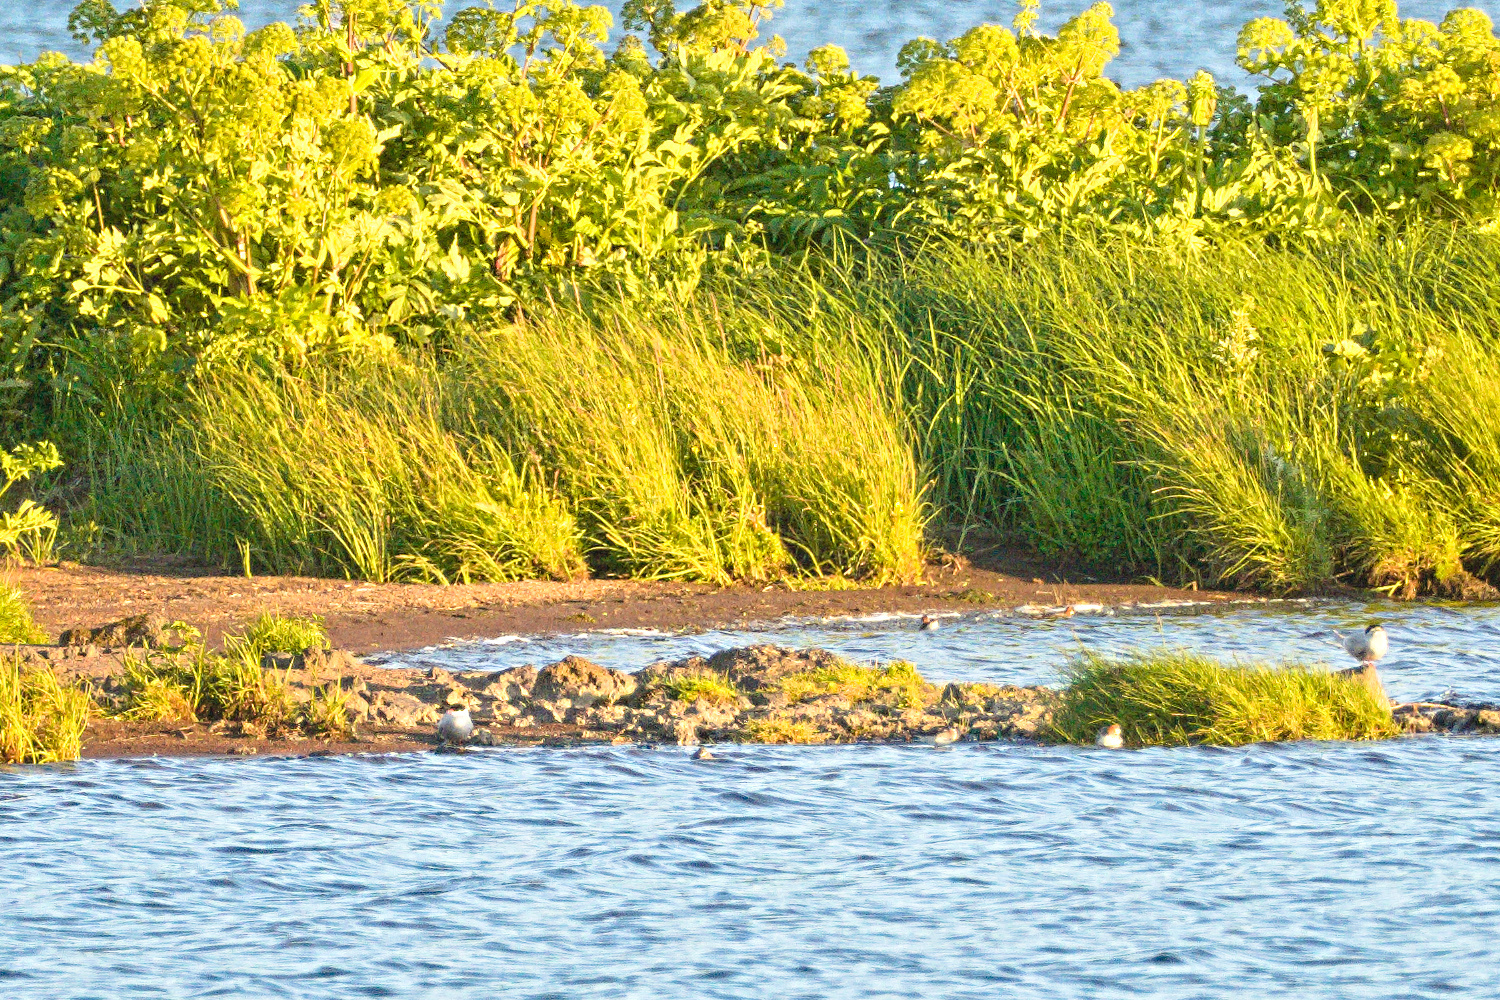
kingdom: Animalia
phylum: Chordata
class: Aves
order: Charadriiformes
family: Scolopacidae
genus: Phalaropus
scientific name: Phalaropus lobatus
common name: Red-necked phalarope
